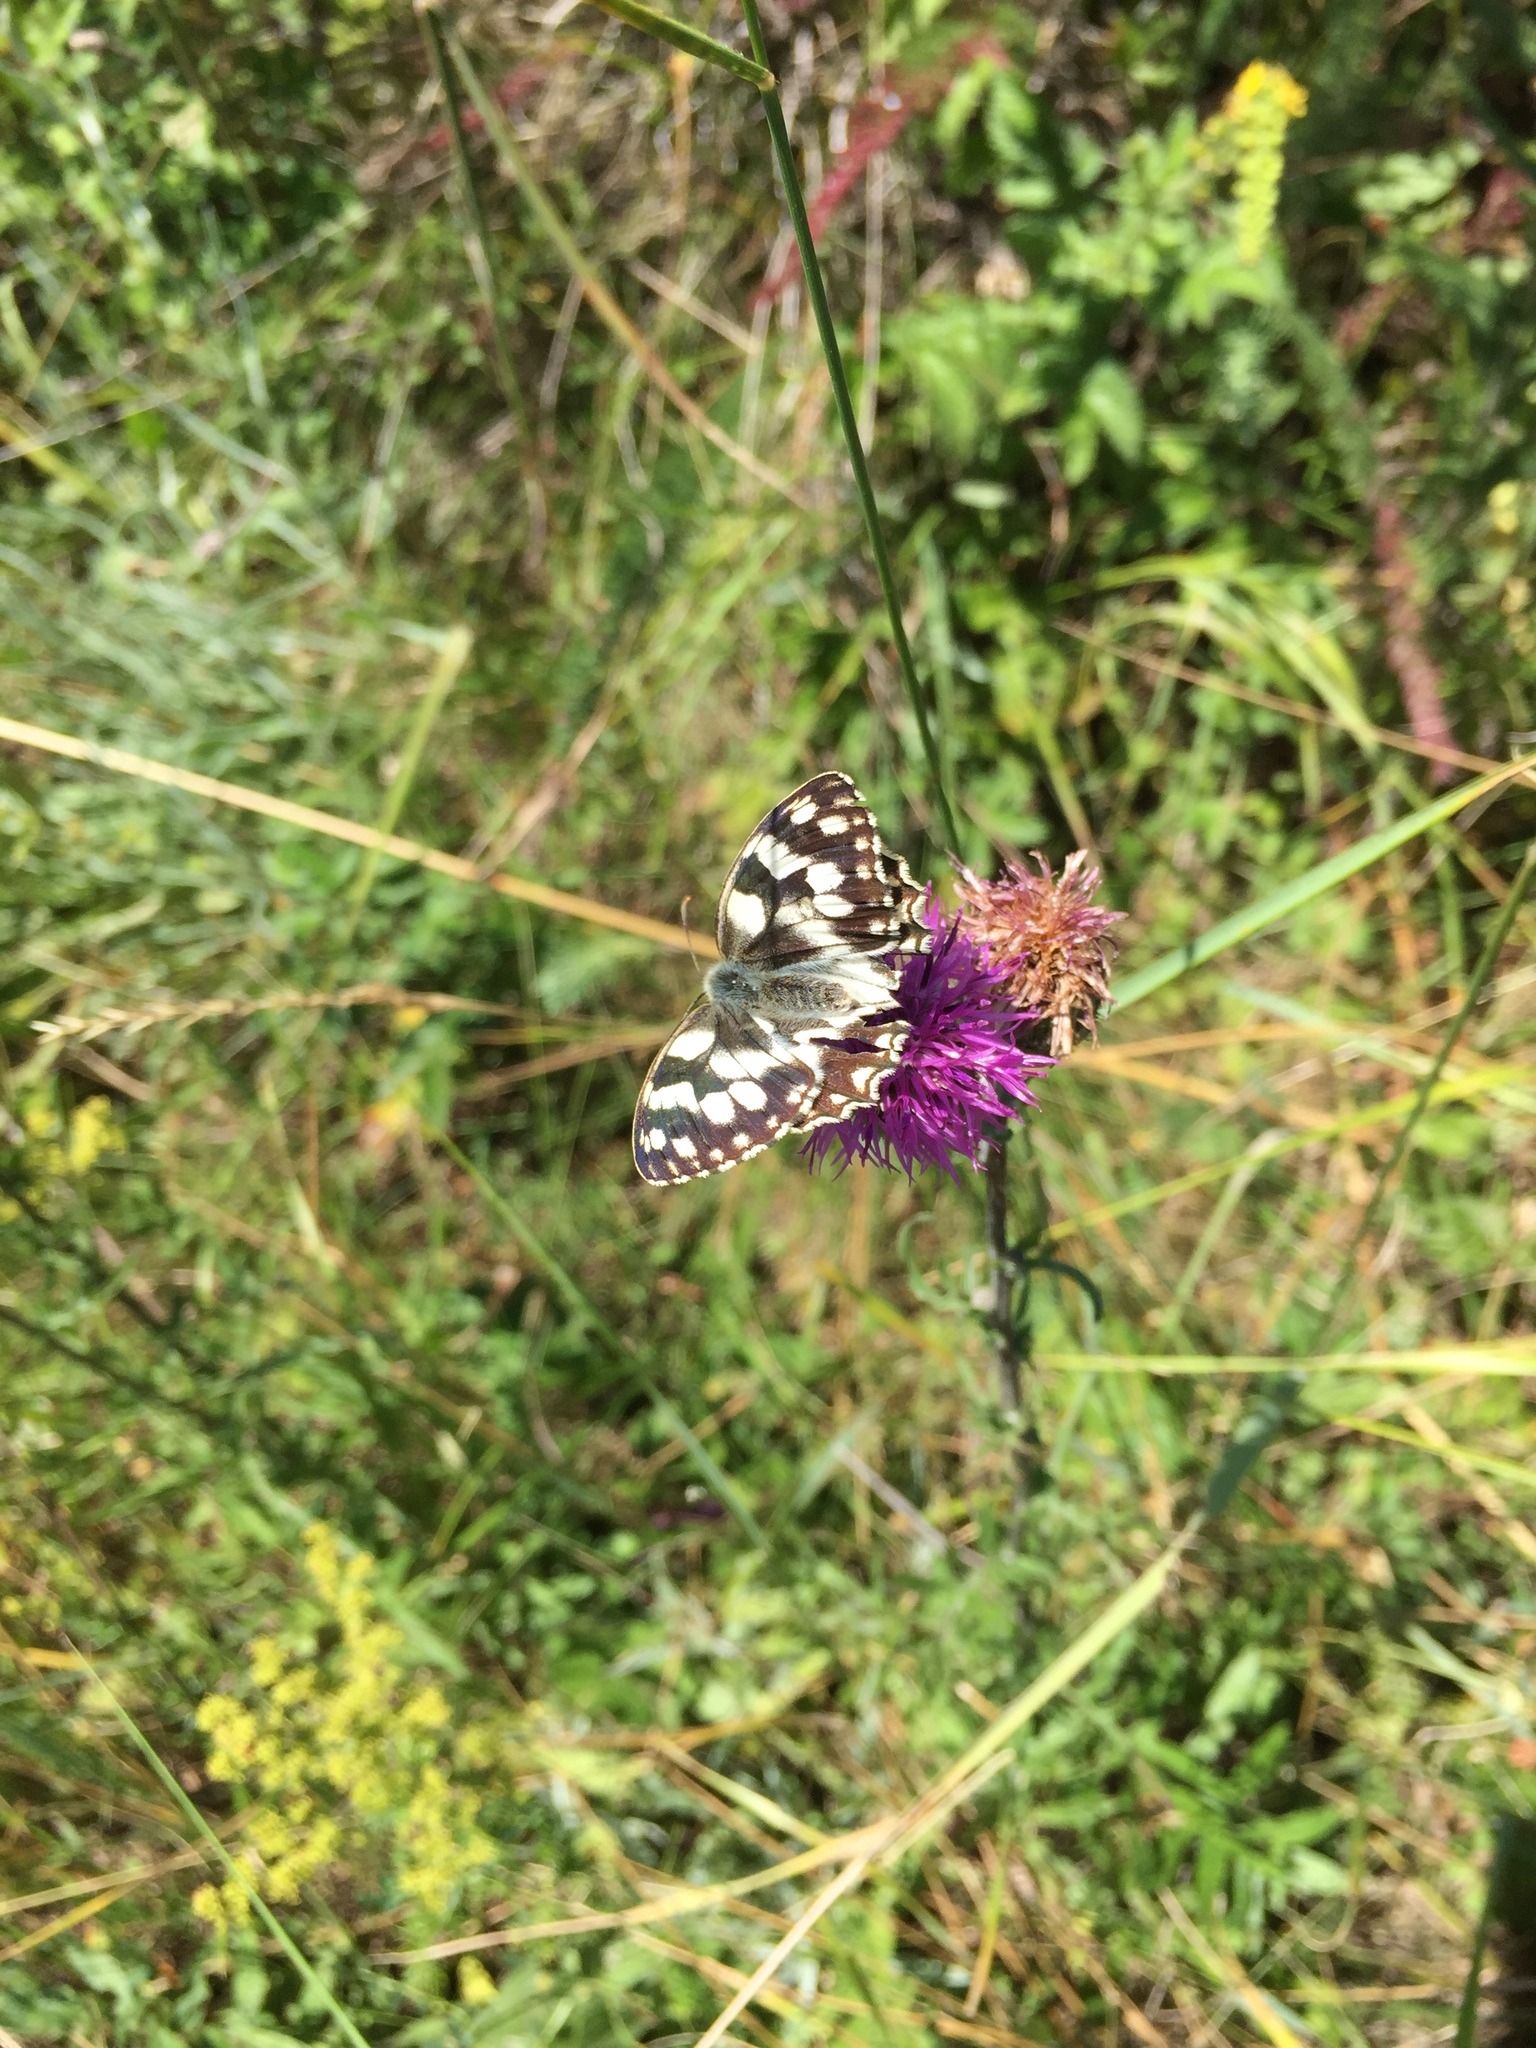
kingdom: Animalia
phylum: Arthropoda
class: Insecta
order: Lepidoptera
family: Nymphalidae
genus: Melanargia
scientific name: Melanargia galathea
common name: Marbled white
